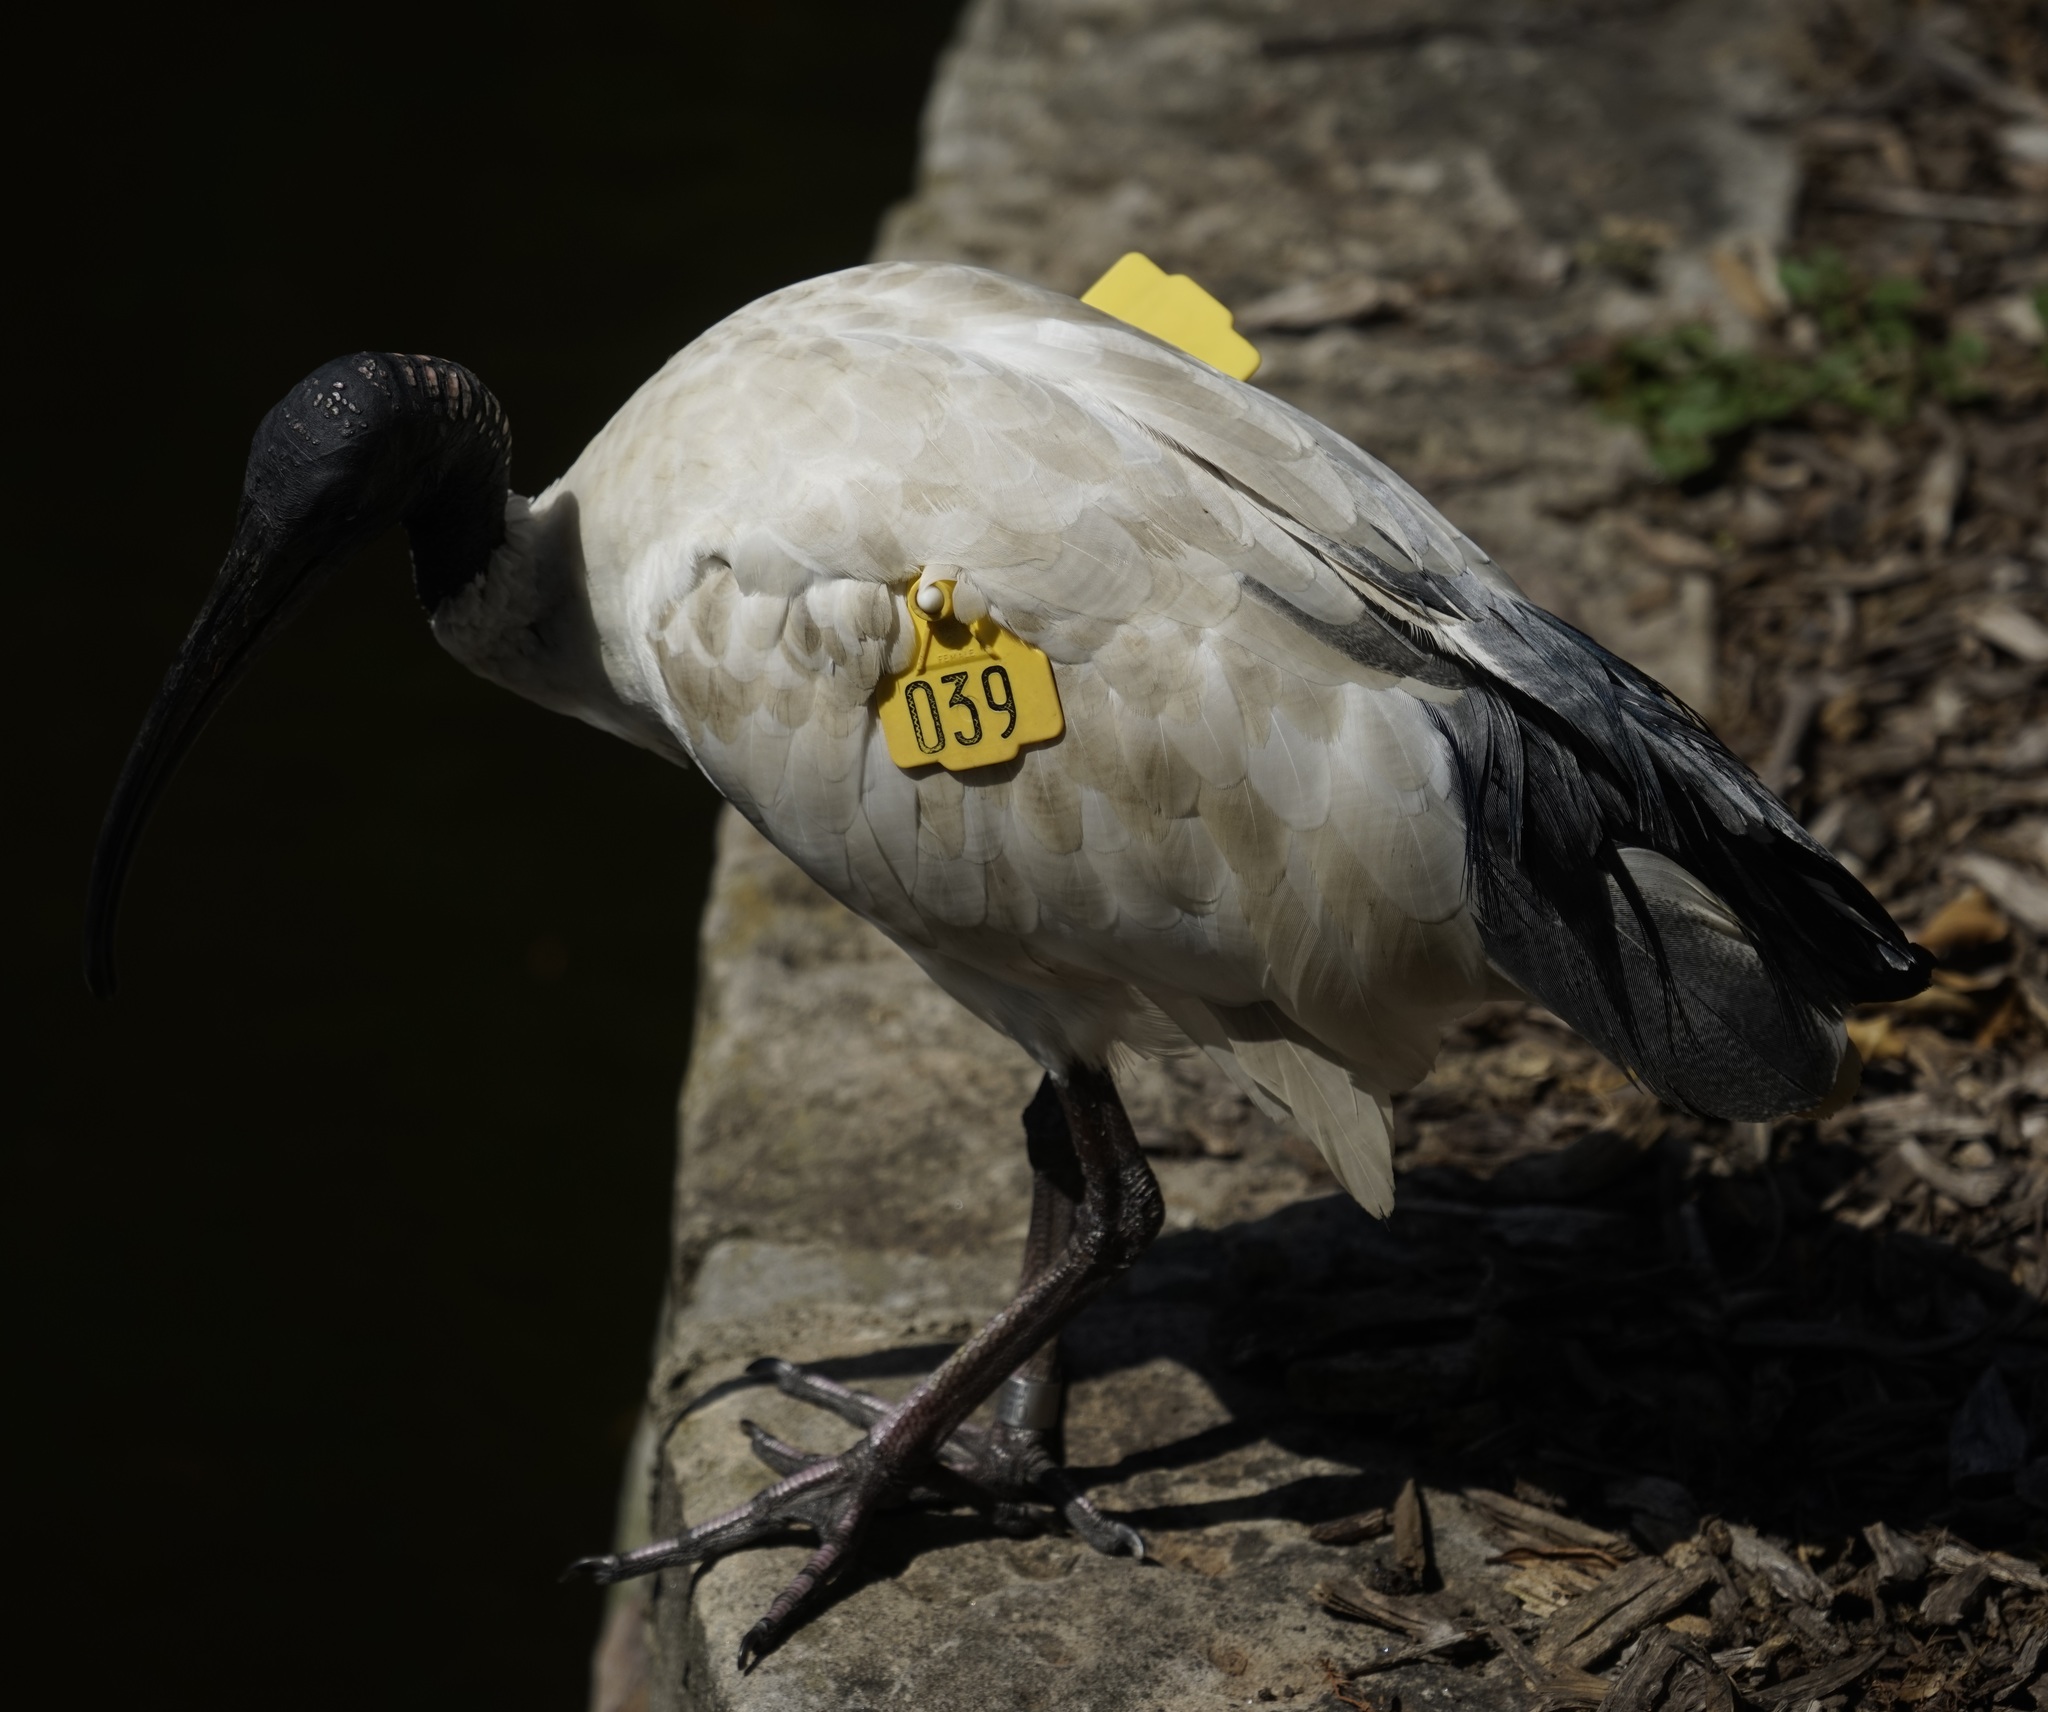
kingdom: Animalia
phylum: Chordata
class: Aves
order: Pelecaniformes
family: Threskiornithidae
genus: Threskiornis
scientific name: Threskiornis molucca
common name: Australian white ibis
